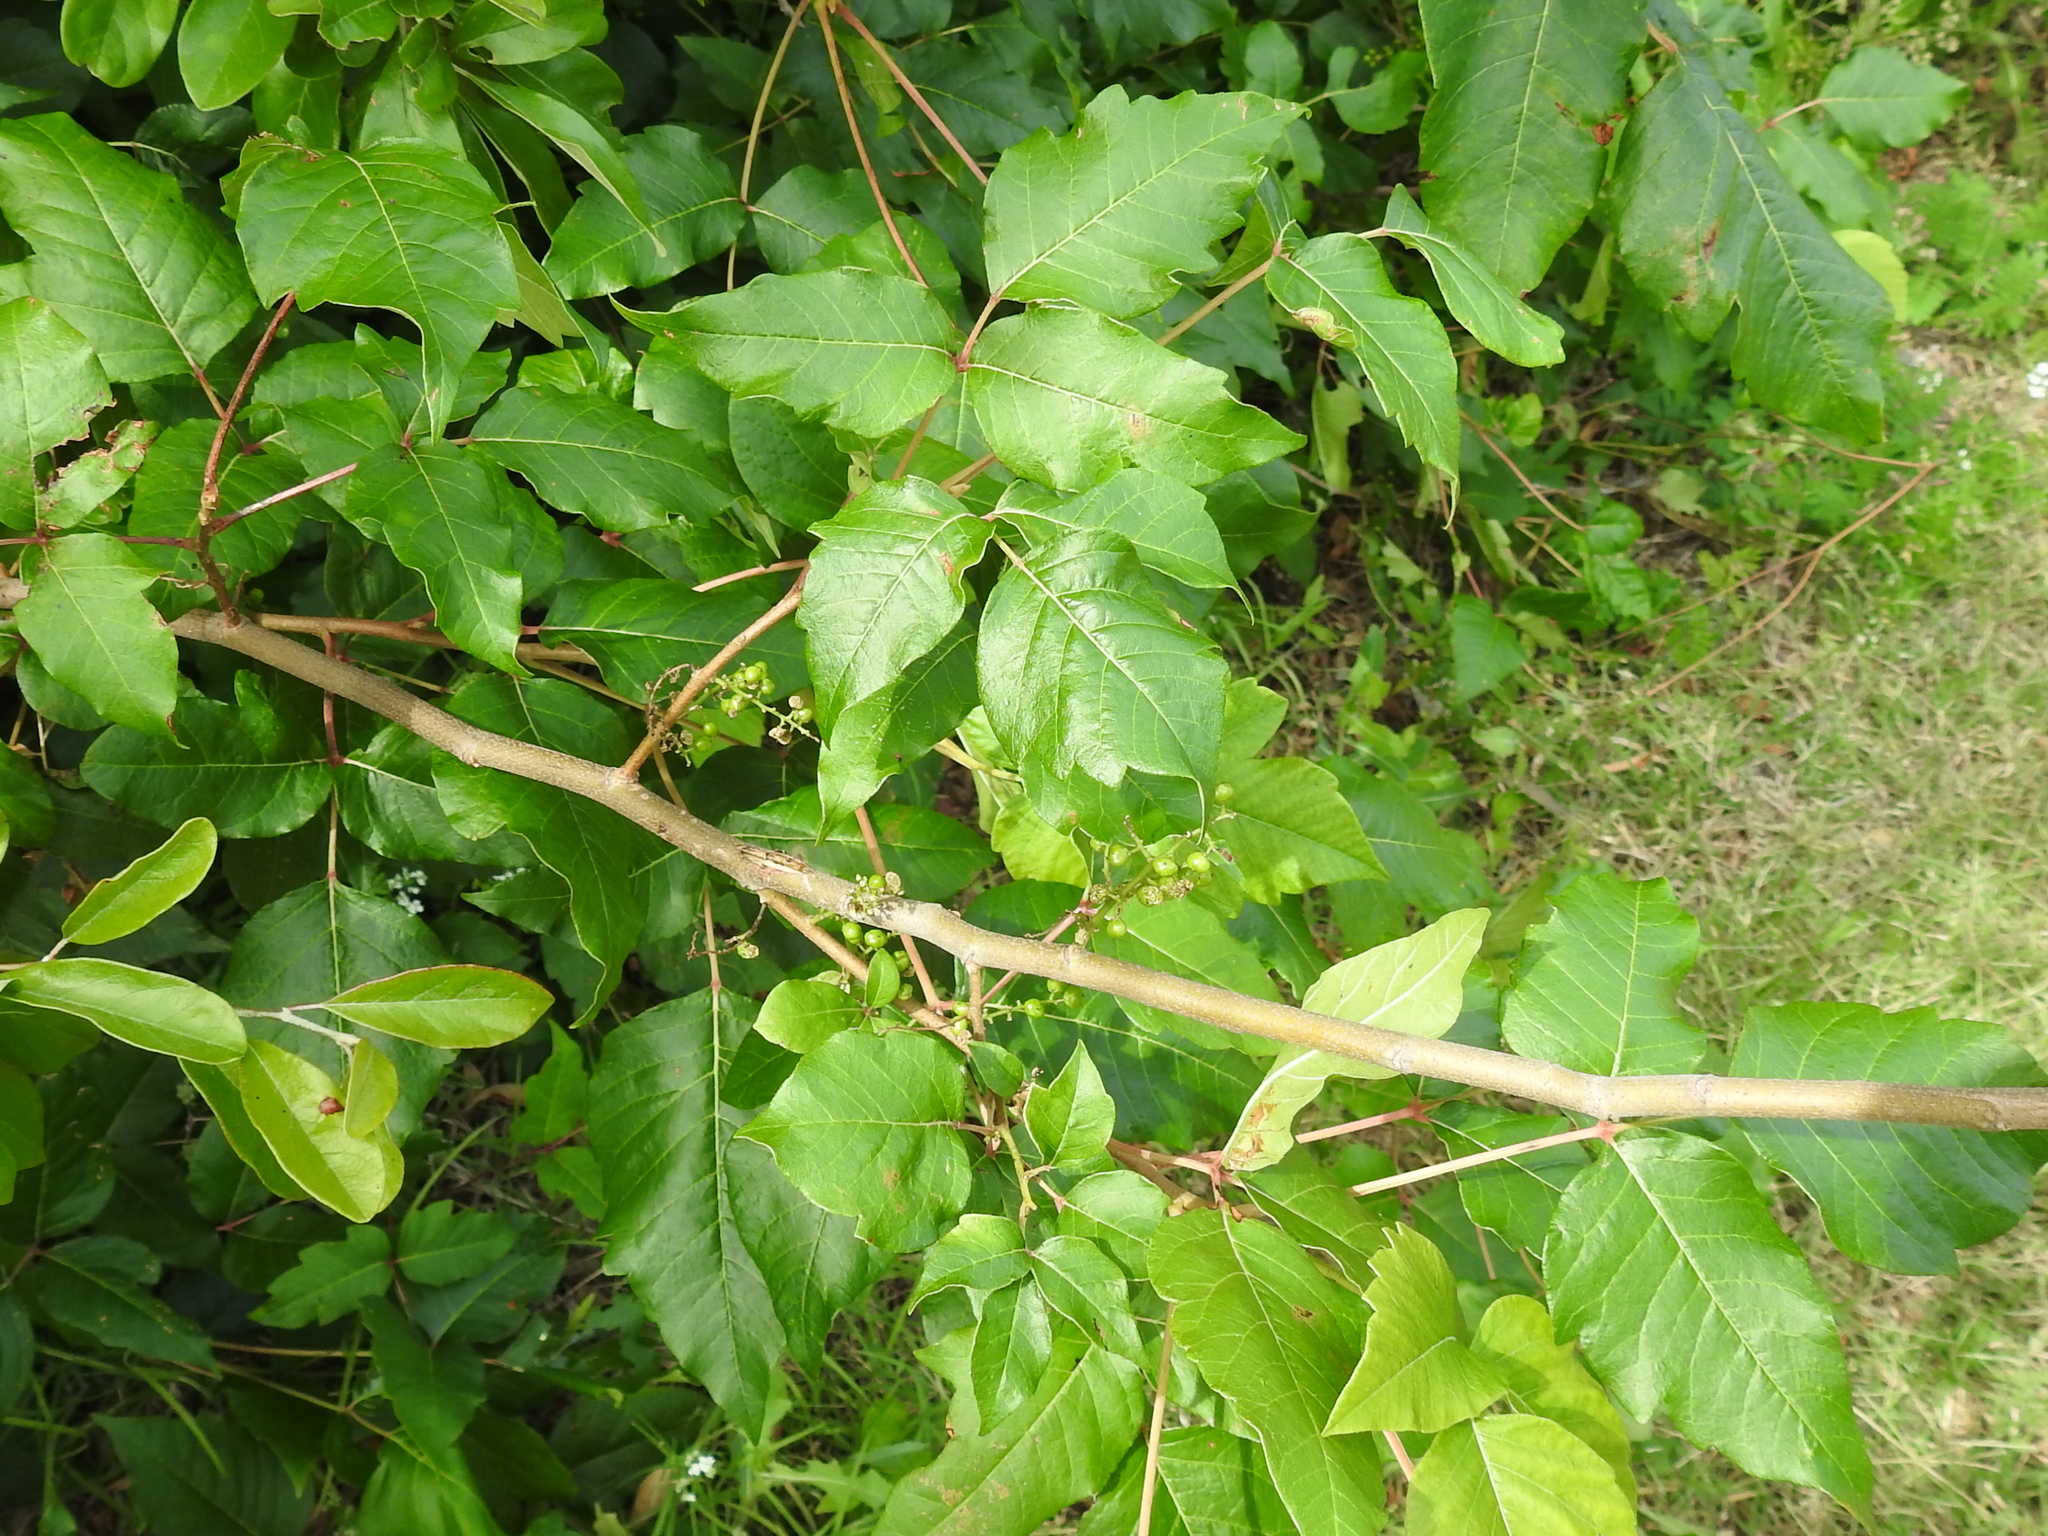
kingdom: Plantae
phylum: Tracheophyta
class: Magnoliopsida
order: Sapindales
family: Anacardiaceae
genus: Toxicodendron
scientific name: Toxicodendron radicans
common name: Poison ivy
